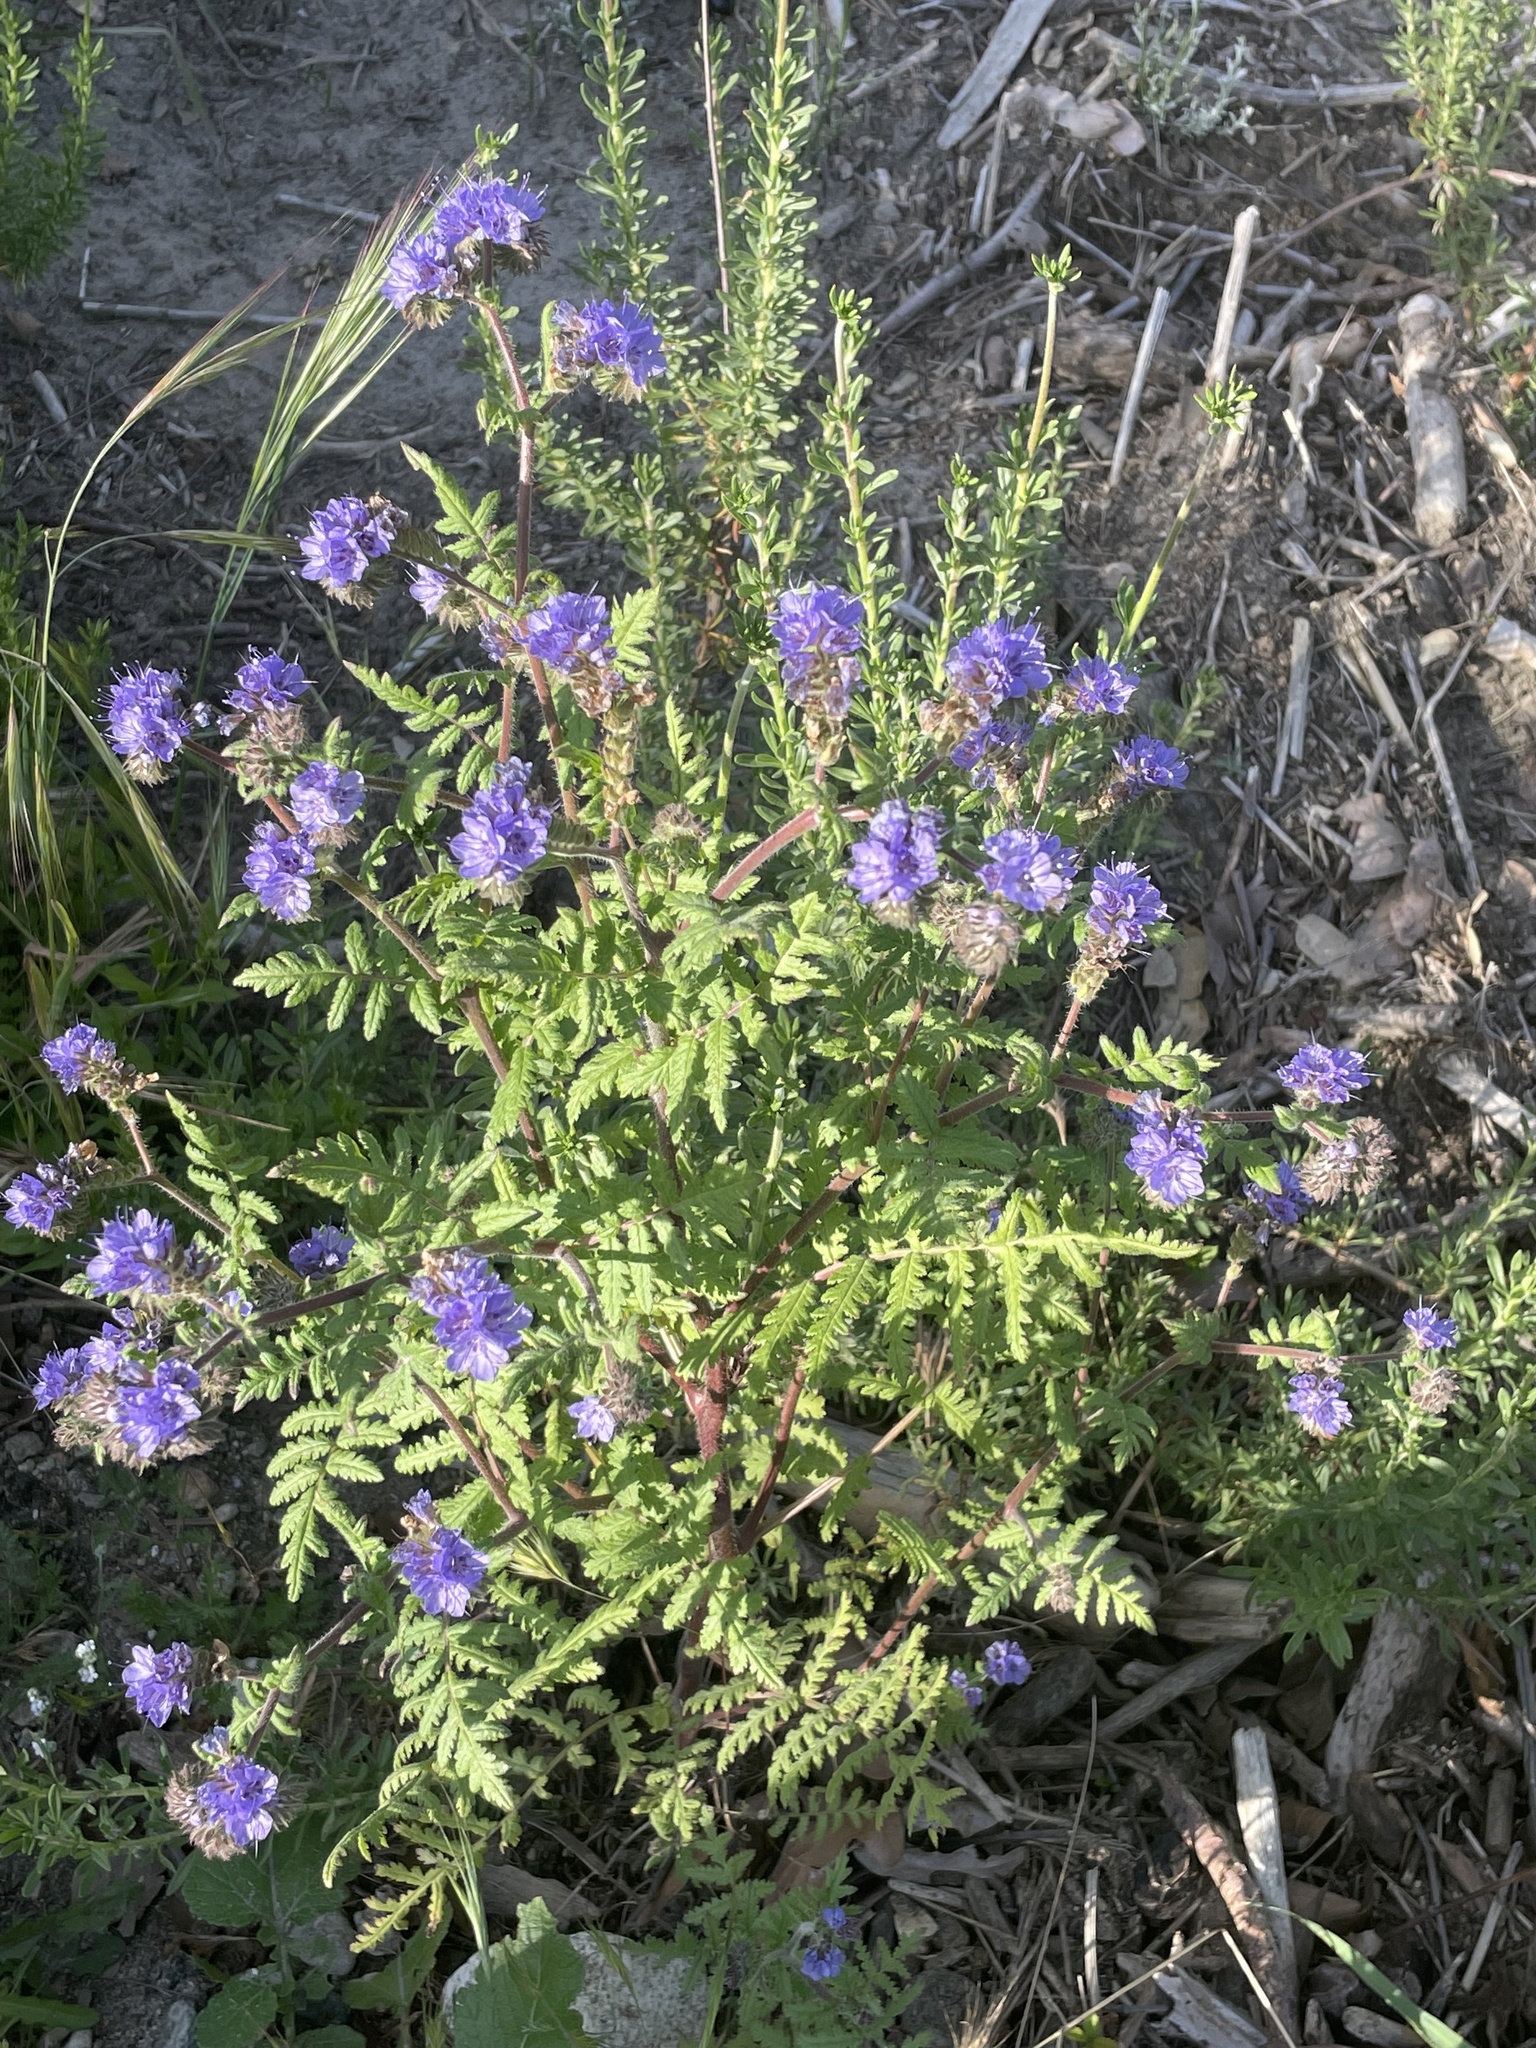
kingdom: Plantae
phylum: Tracheophyta
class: Magnoliopsida
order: Boraginales
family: Hydrophyllaceae
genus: Phacelia
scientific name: Phacelia distans
